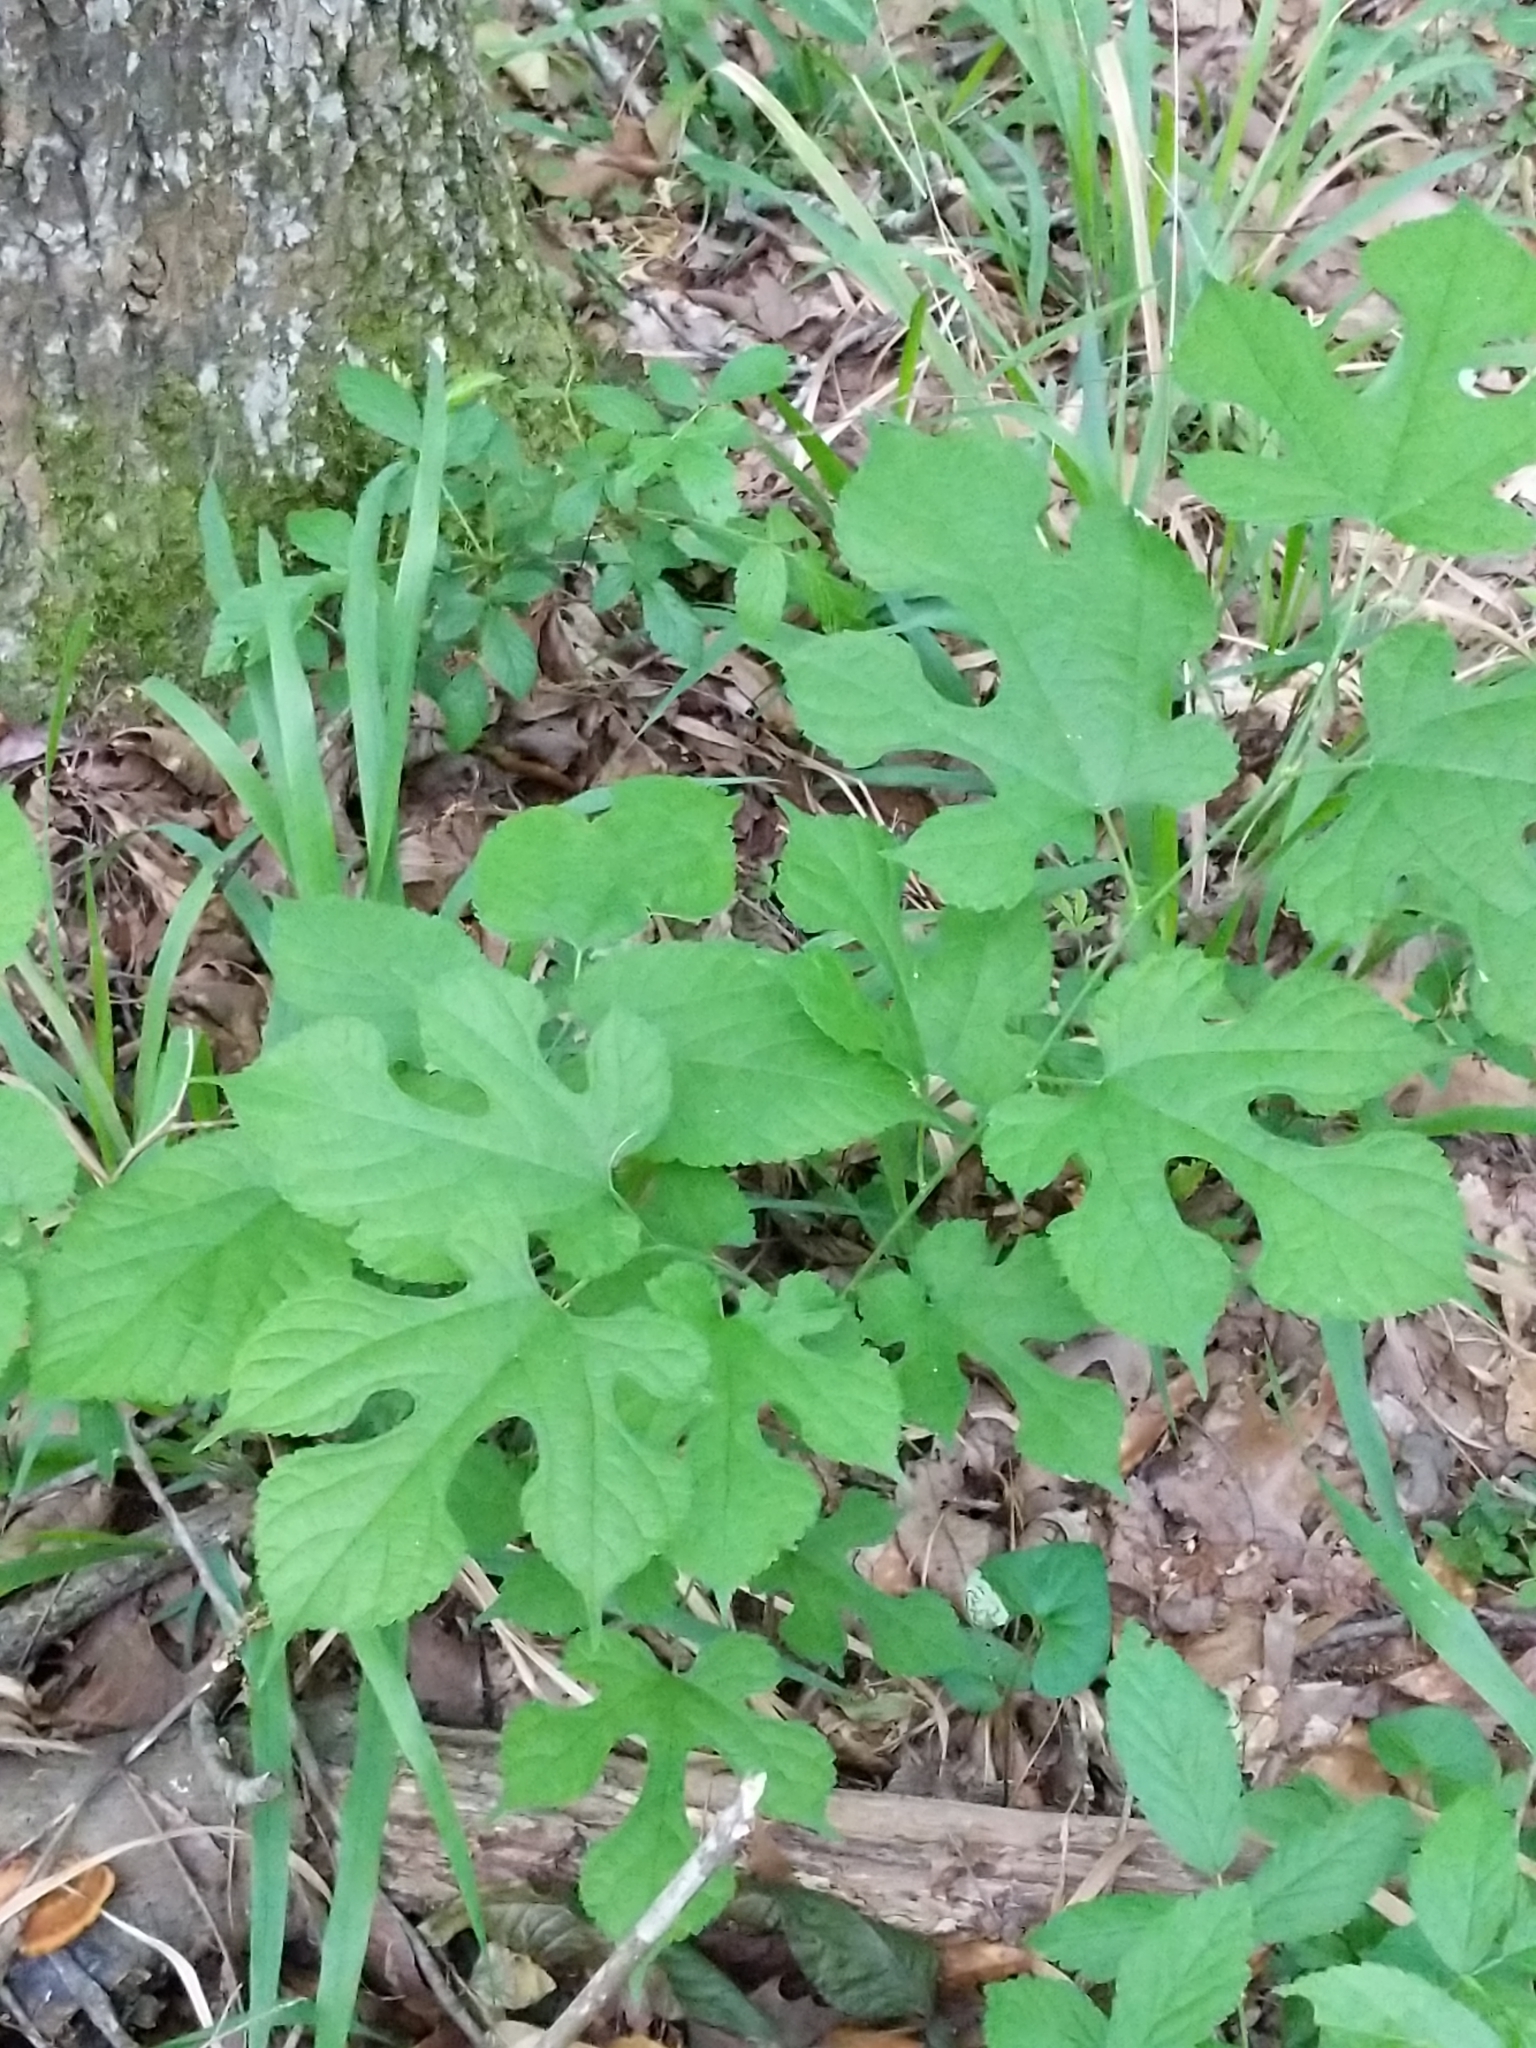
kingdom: Plantae
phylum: Tracheophyta
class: Magnoliopsida
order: Rosales
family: Moraceae
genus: Morus
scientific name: Morus rubra
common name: Red mulberry
